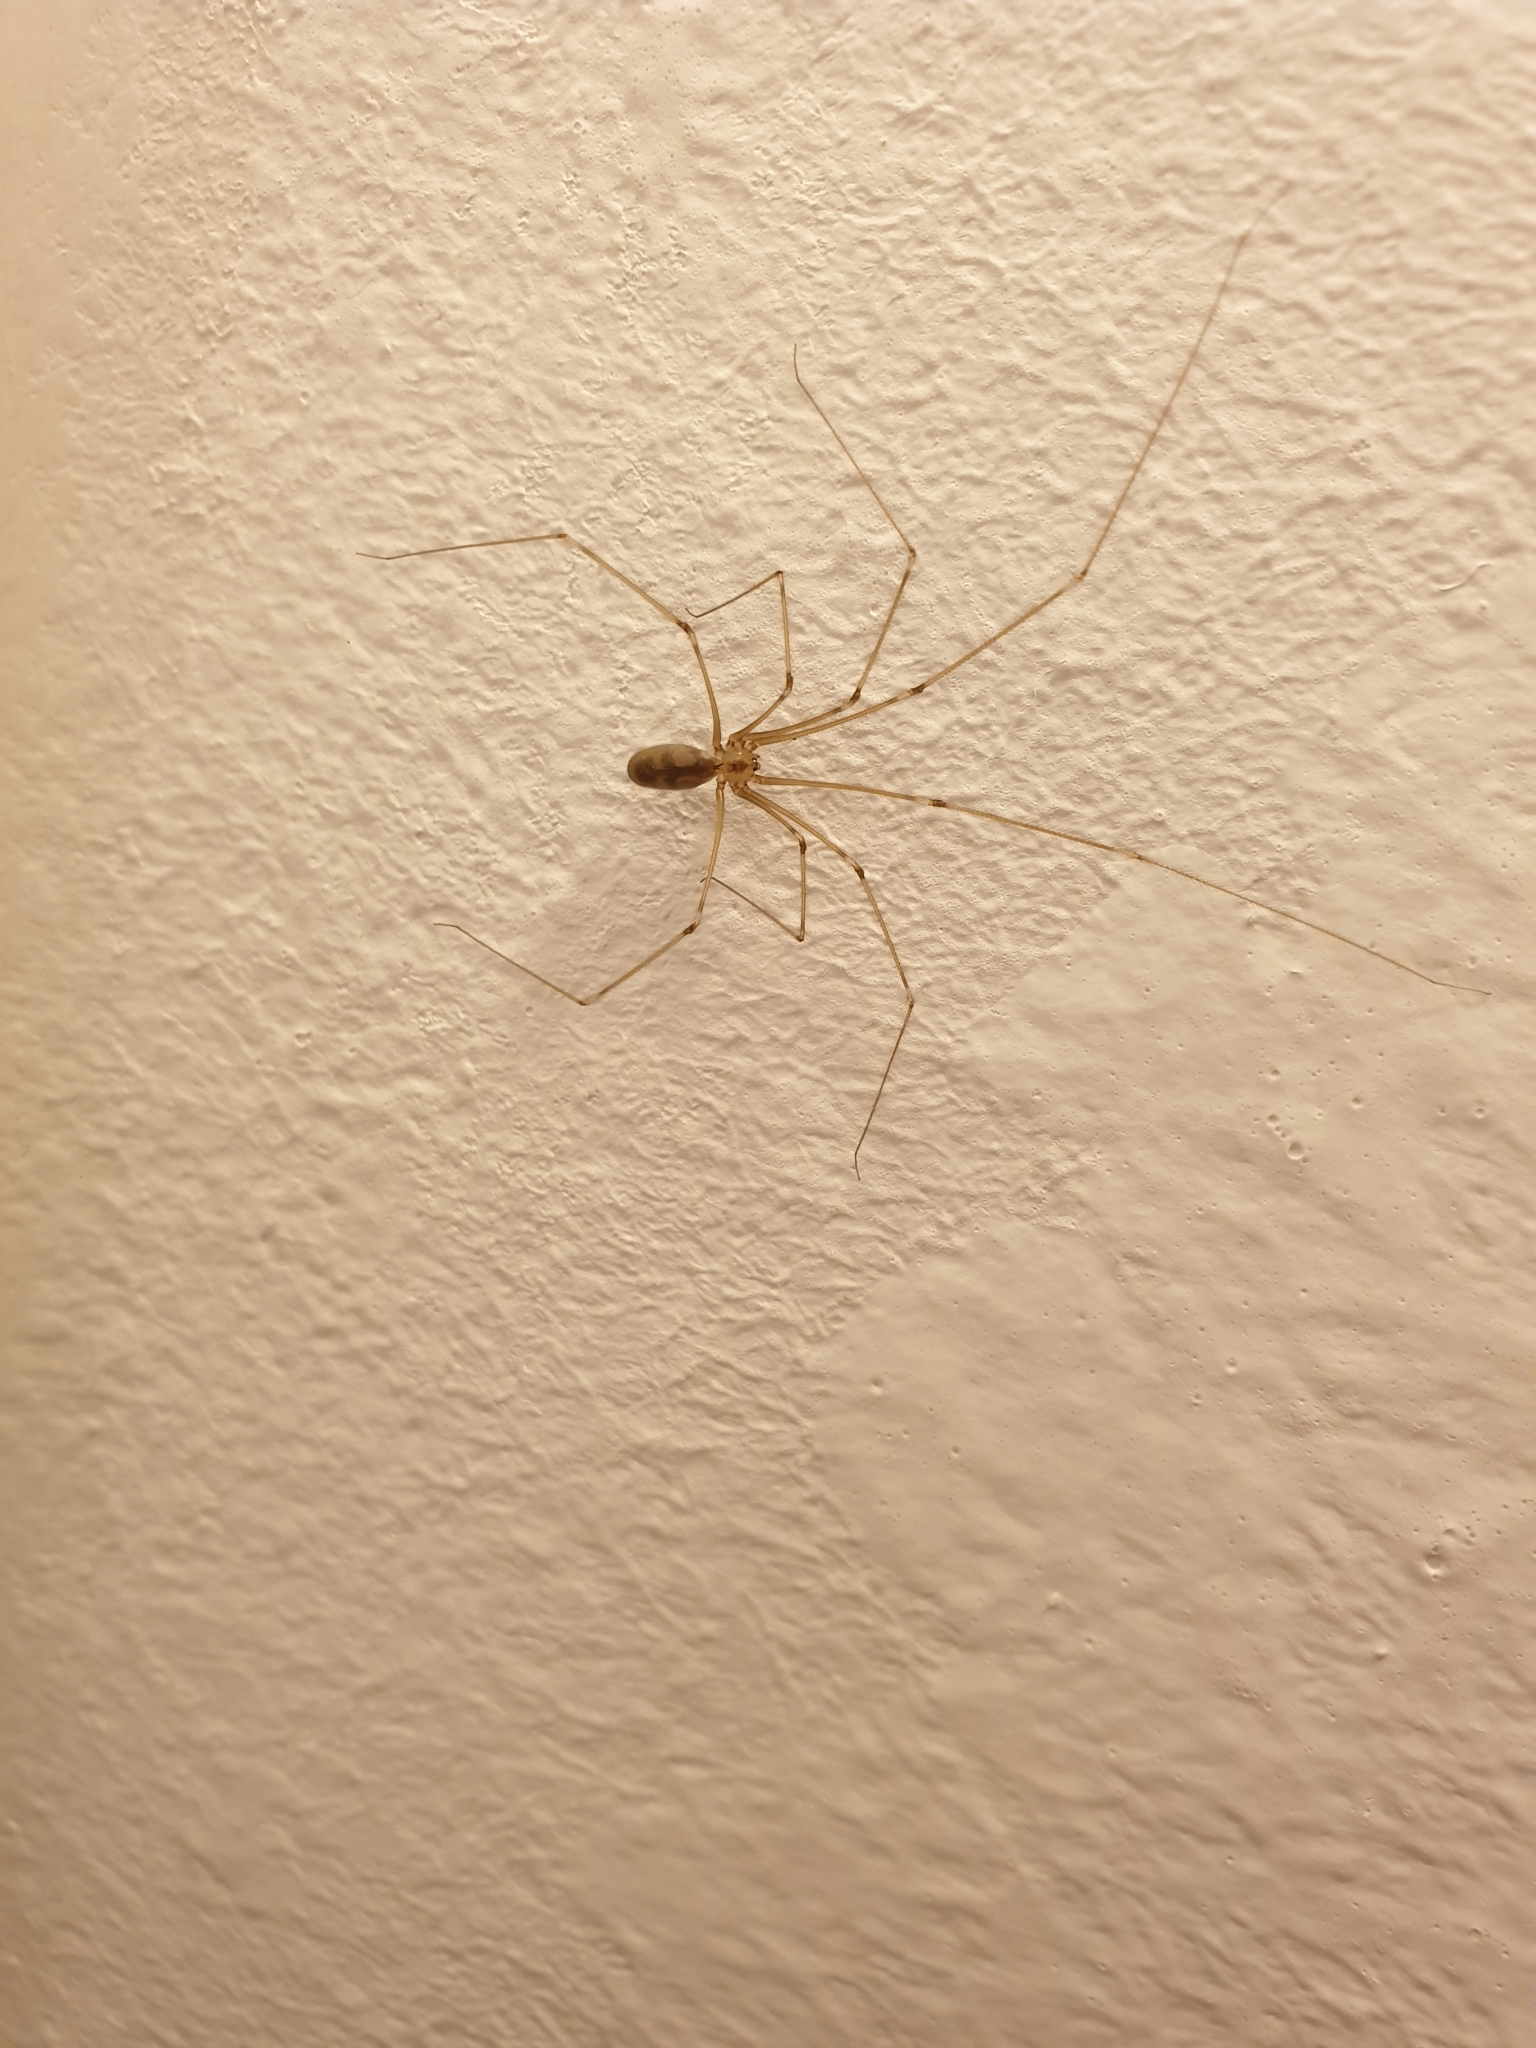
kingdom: Animalia
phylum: Arthropoda
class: Arachnida
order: Araneae
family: Pholcidae
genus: Pholcus
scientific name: Pholcus phalangioides
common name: Longbodied cellar spider
